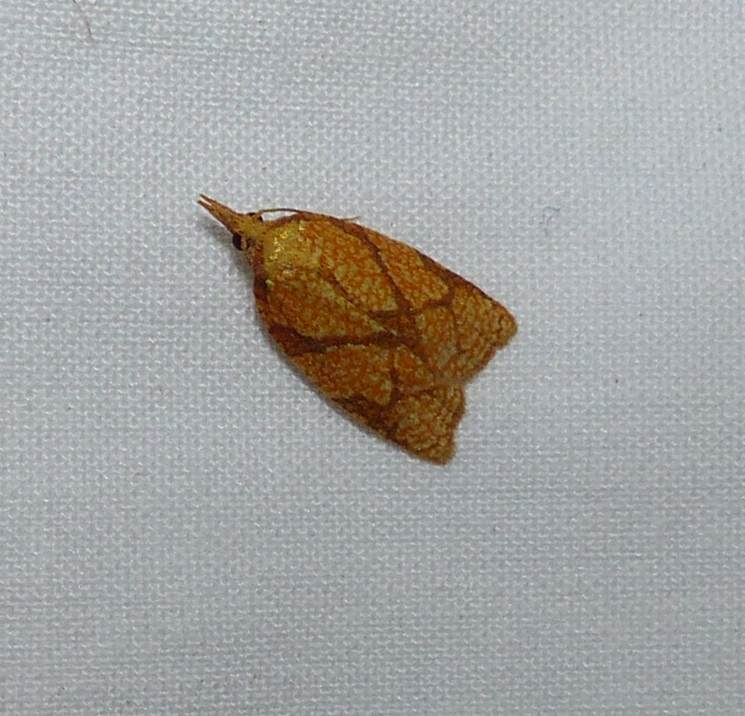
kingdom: Animalia
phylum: Arthropoda
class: Insecta
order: Lepidoptera
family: Tortricidae
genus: Cenopis
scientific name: Cenopis reticulatana
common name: Reticulated fruitworm moth
